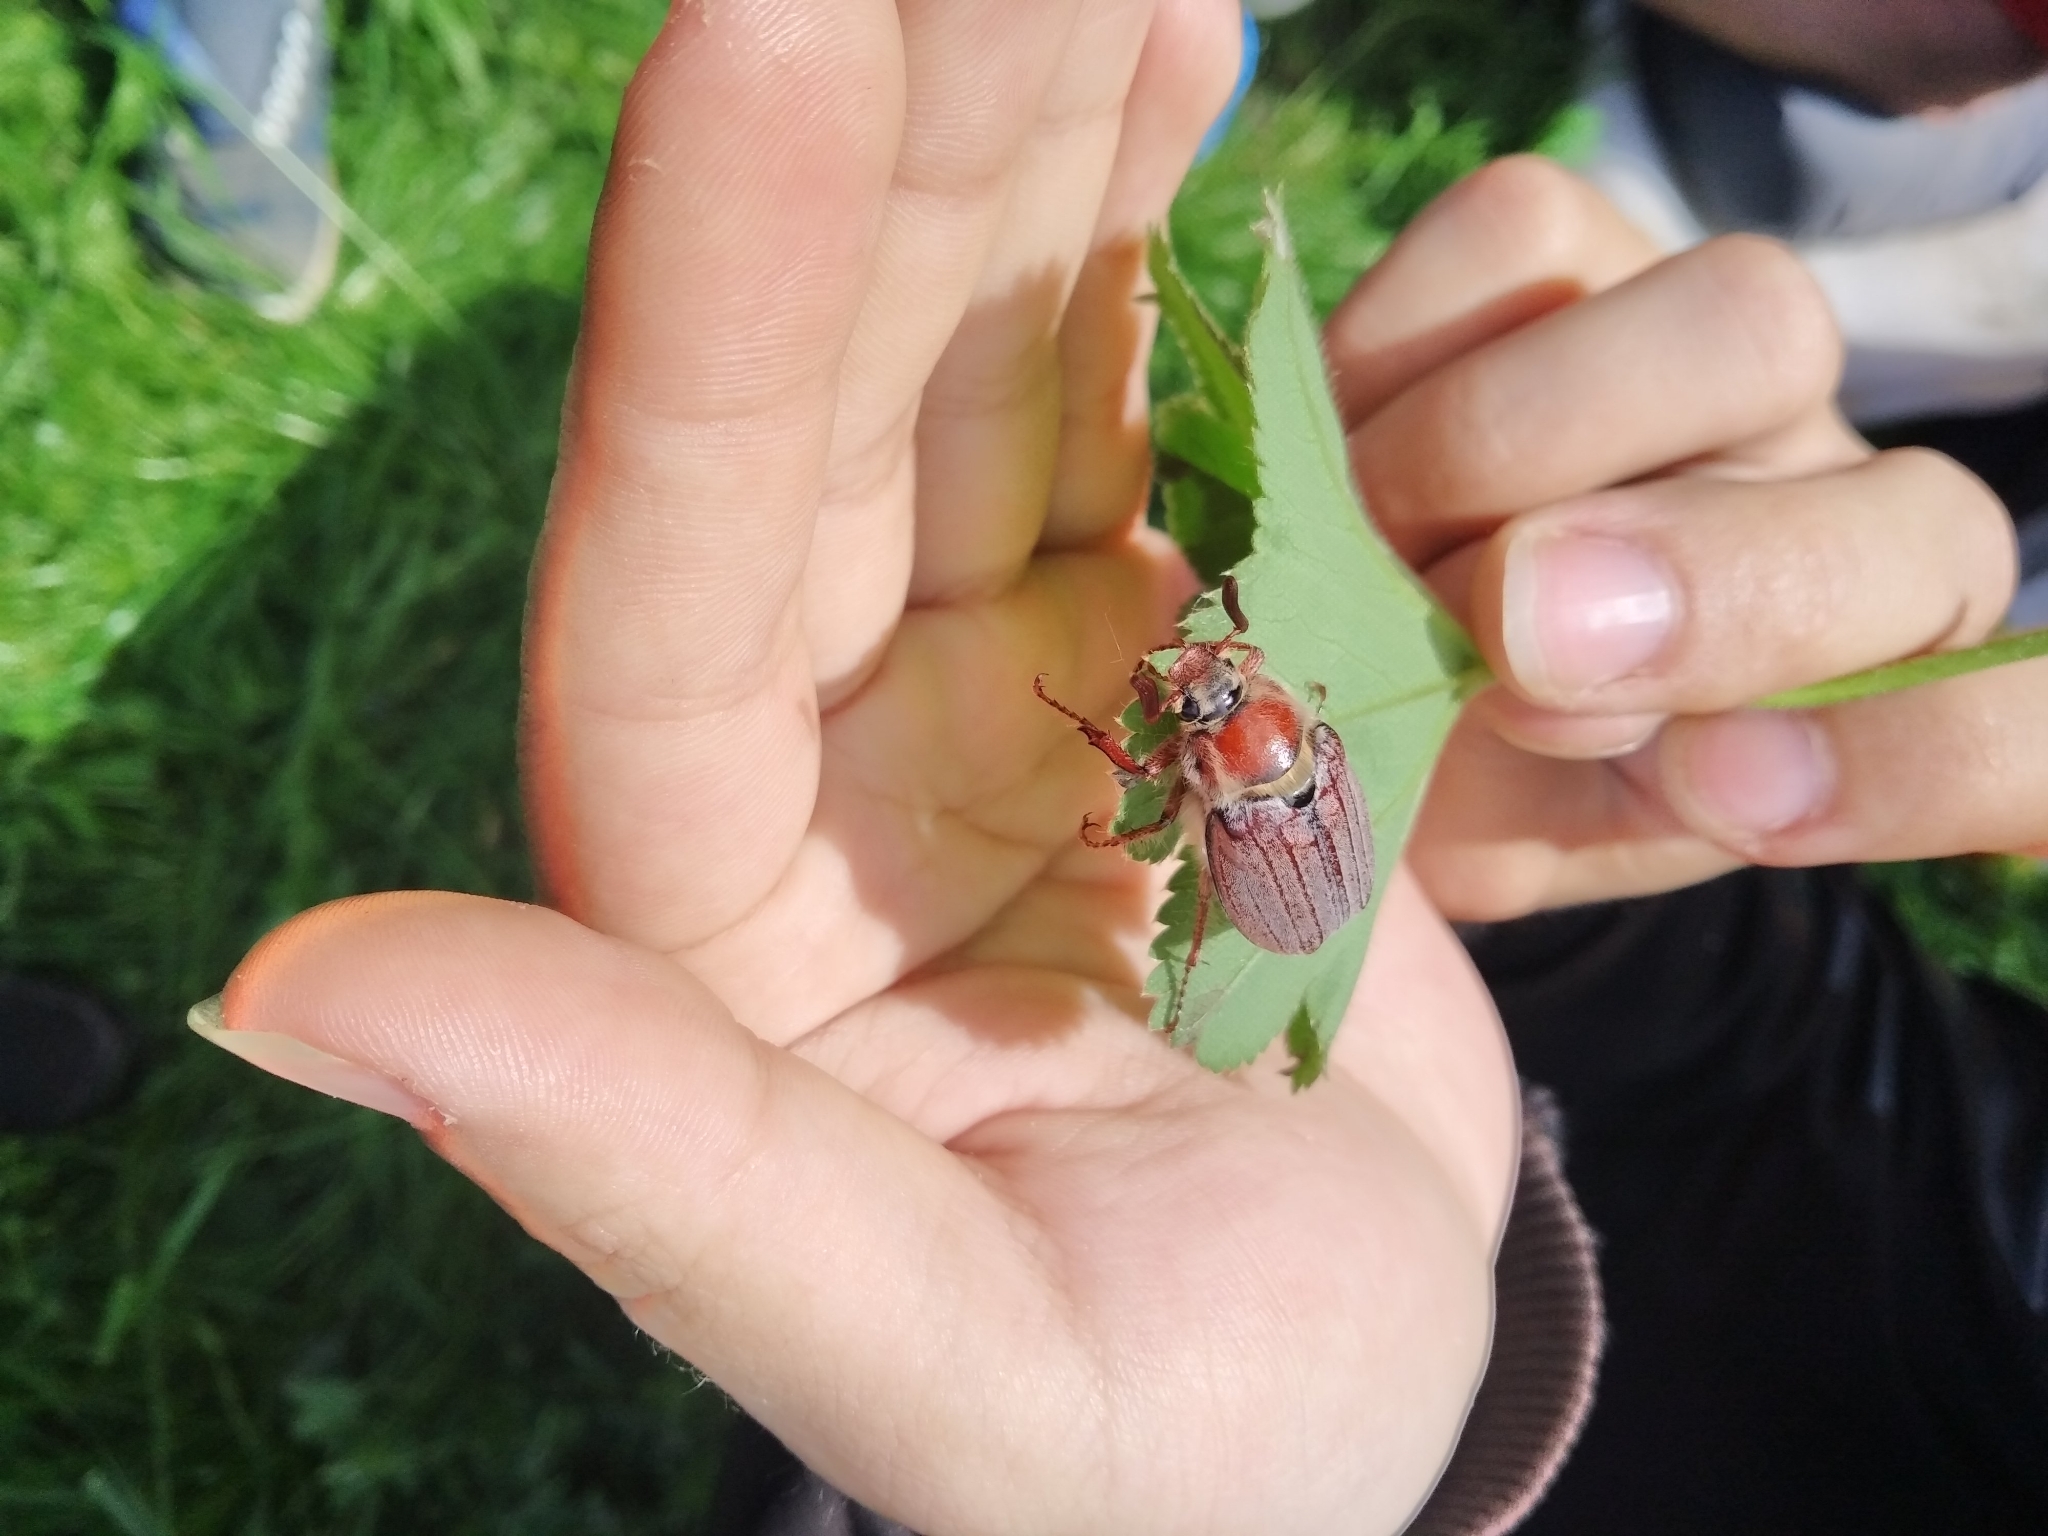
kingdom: Animalia
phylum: Arthropoda
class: Insecta
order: Coleoptera
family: Scarabaeidae
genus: Melolontha
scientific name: Melolontha hippocastani
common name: Chestnut cockchafer
